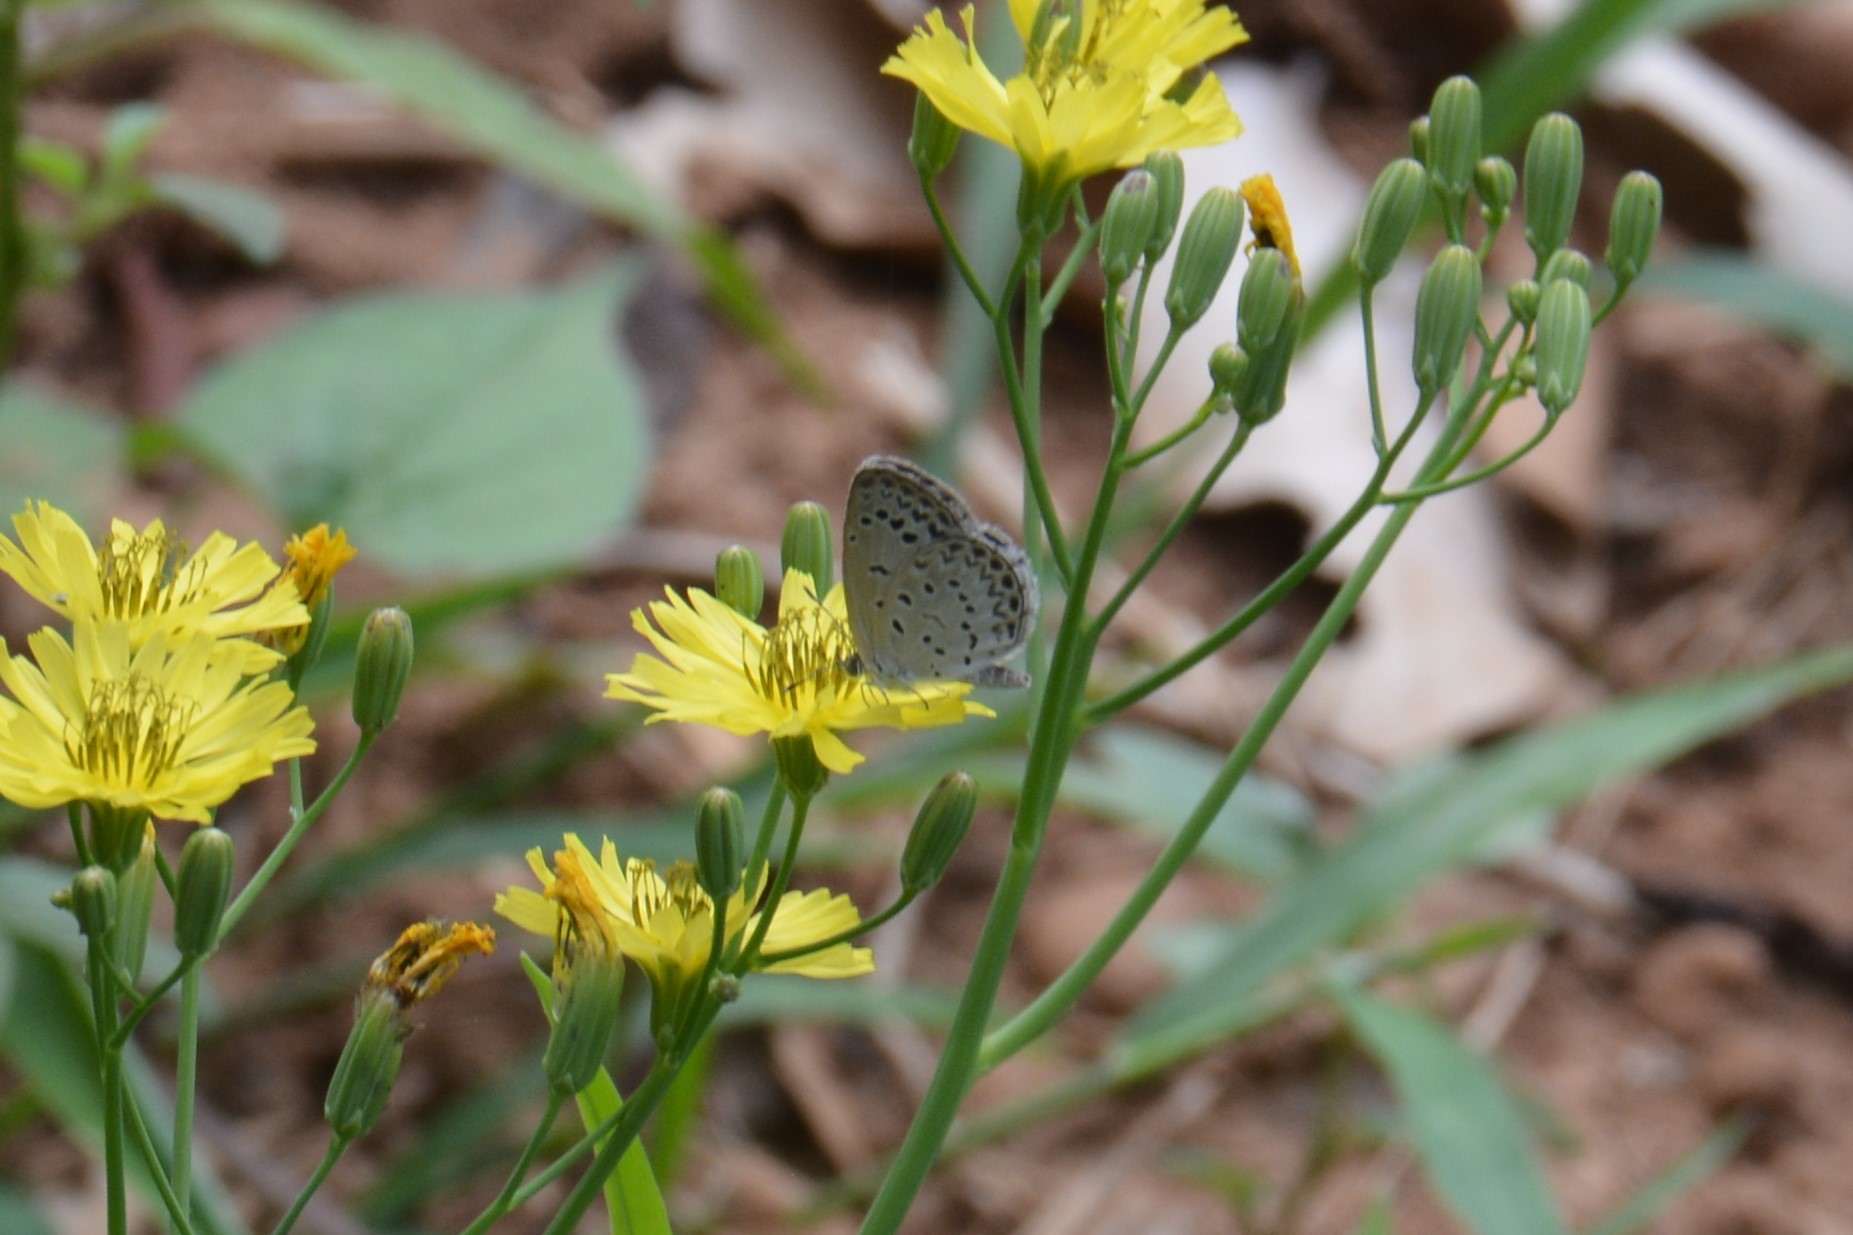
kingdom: Animalia
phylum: Arthropoda
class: Insecta
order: Lepidoptera
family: Lycaenidae
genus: Pseudozizeeria
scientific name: Pseudozizeeria maha
